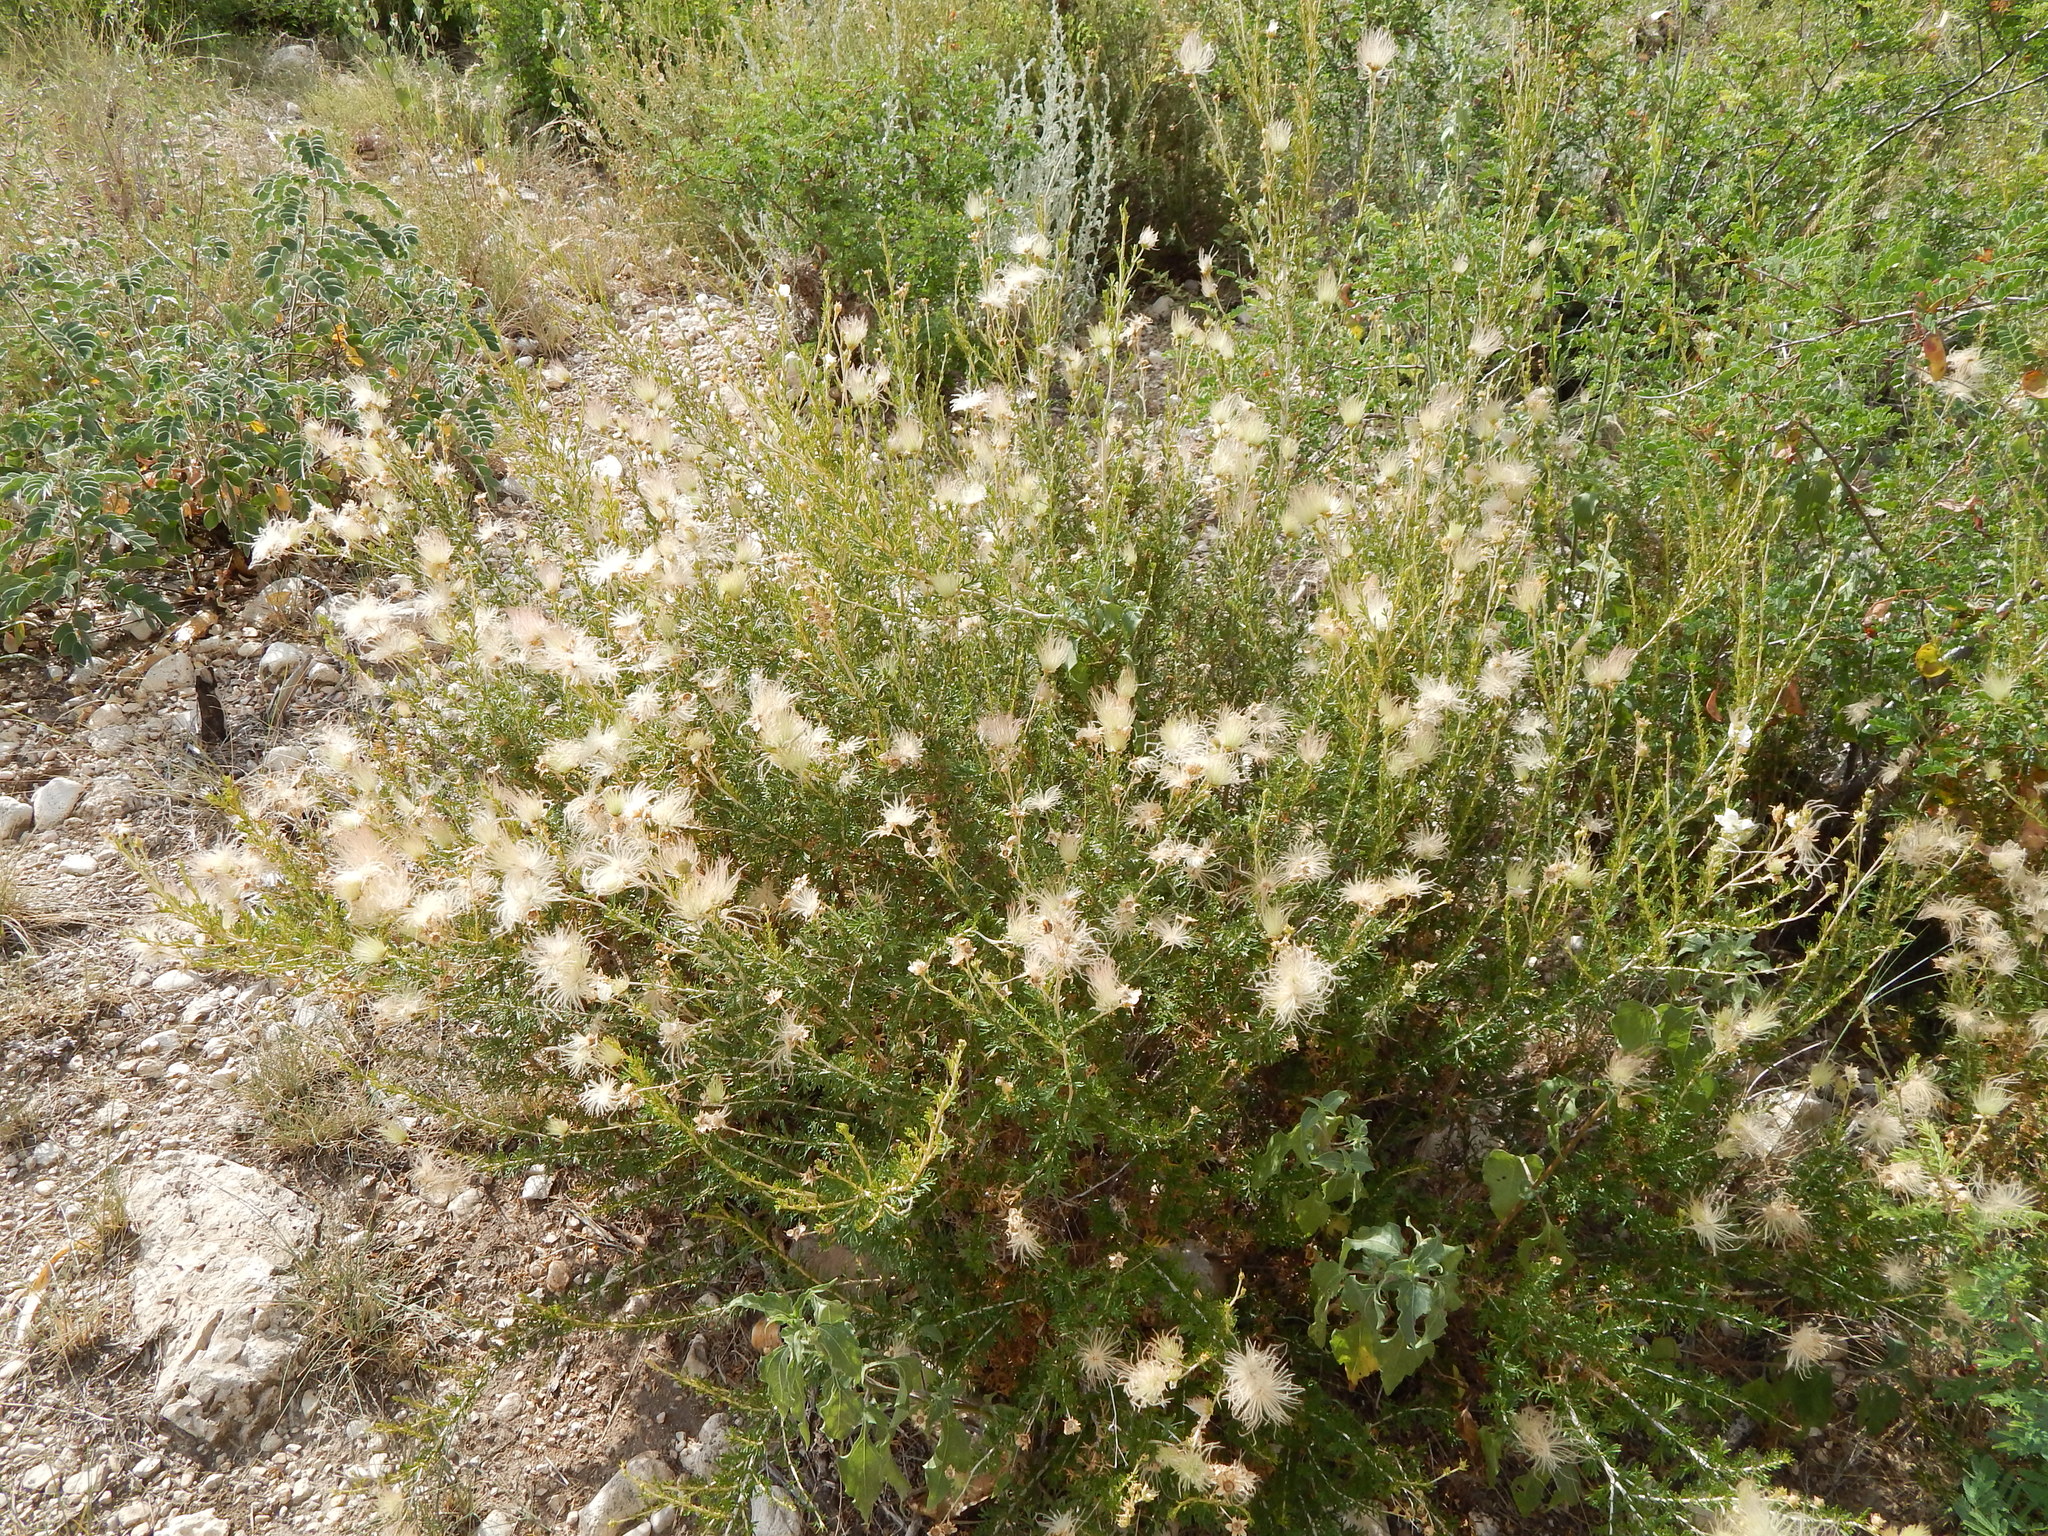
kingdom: Plantae
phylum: Tracheophyta
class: Magnoliopsida
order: Rosales
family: Rosaceae
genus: Fallugia
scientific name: Fallugia paradoxa
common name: Apache-plume
